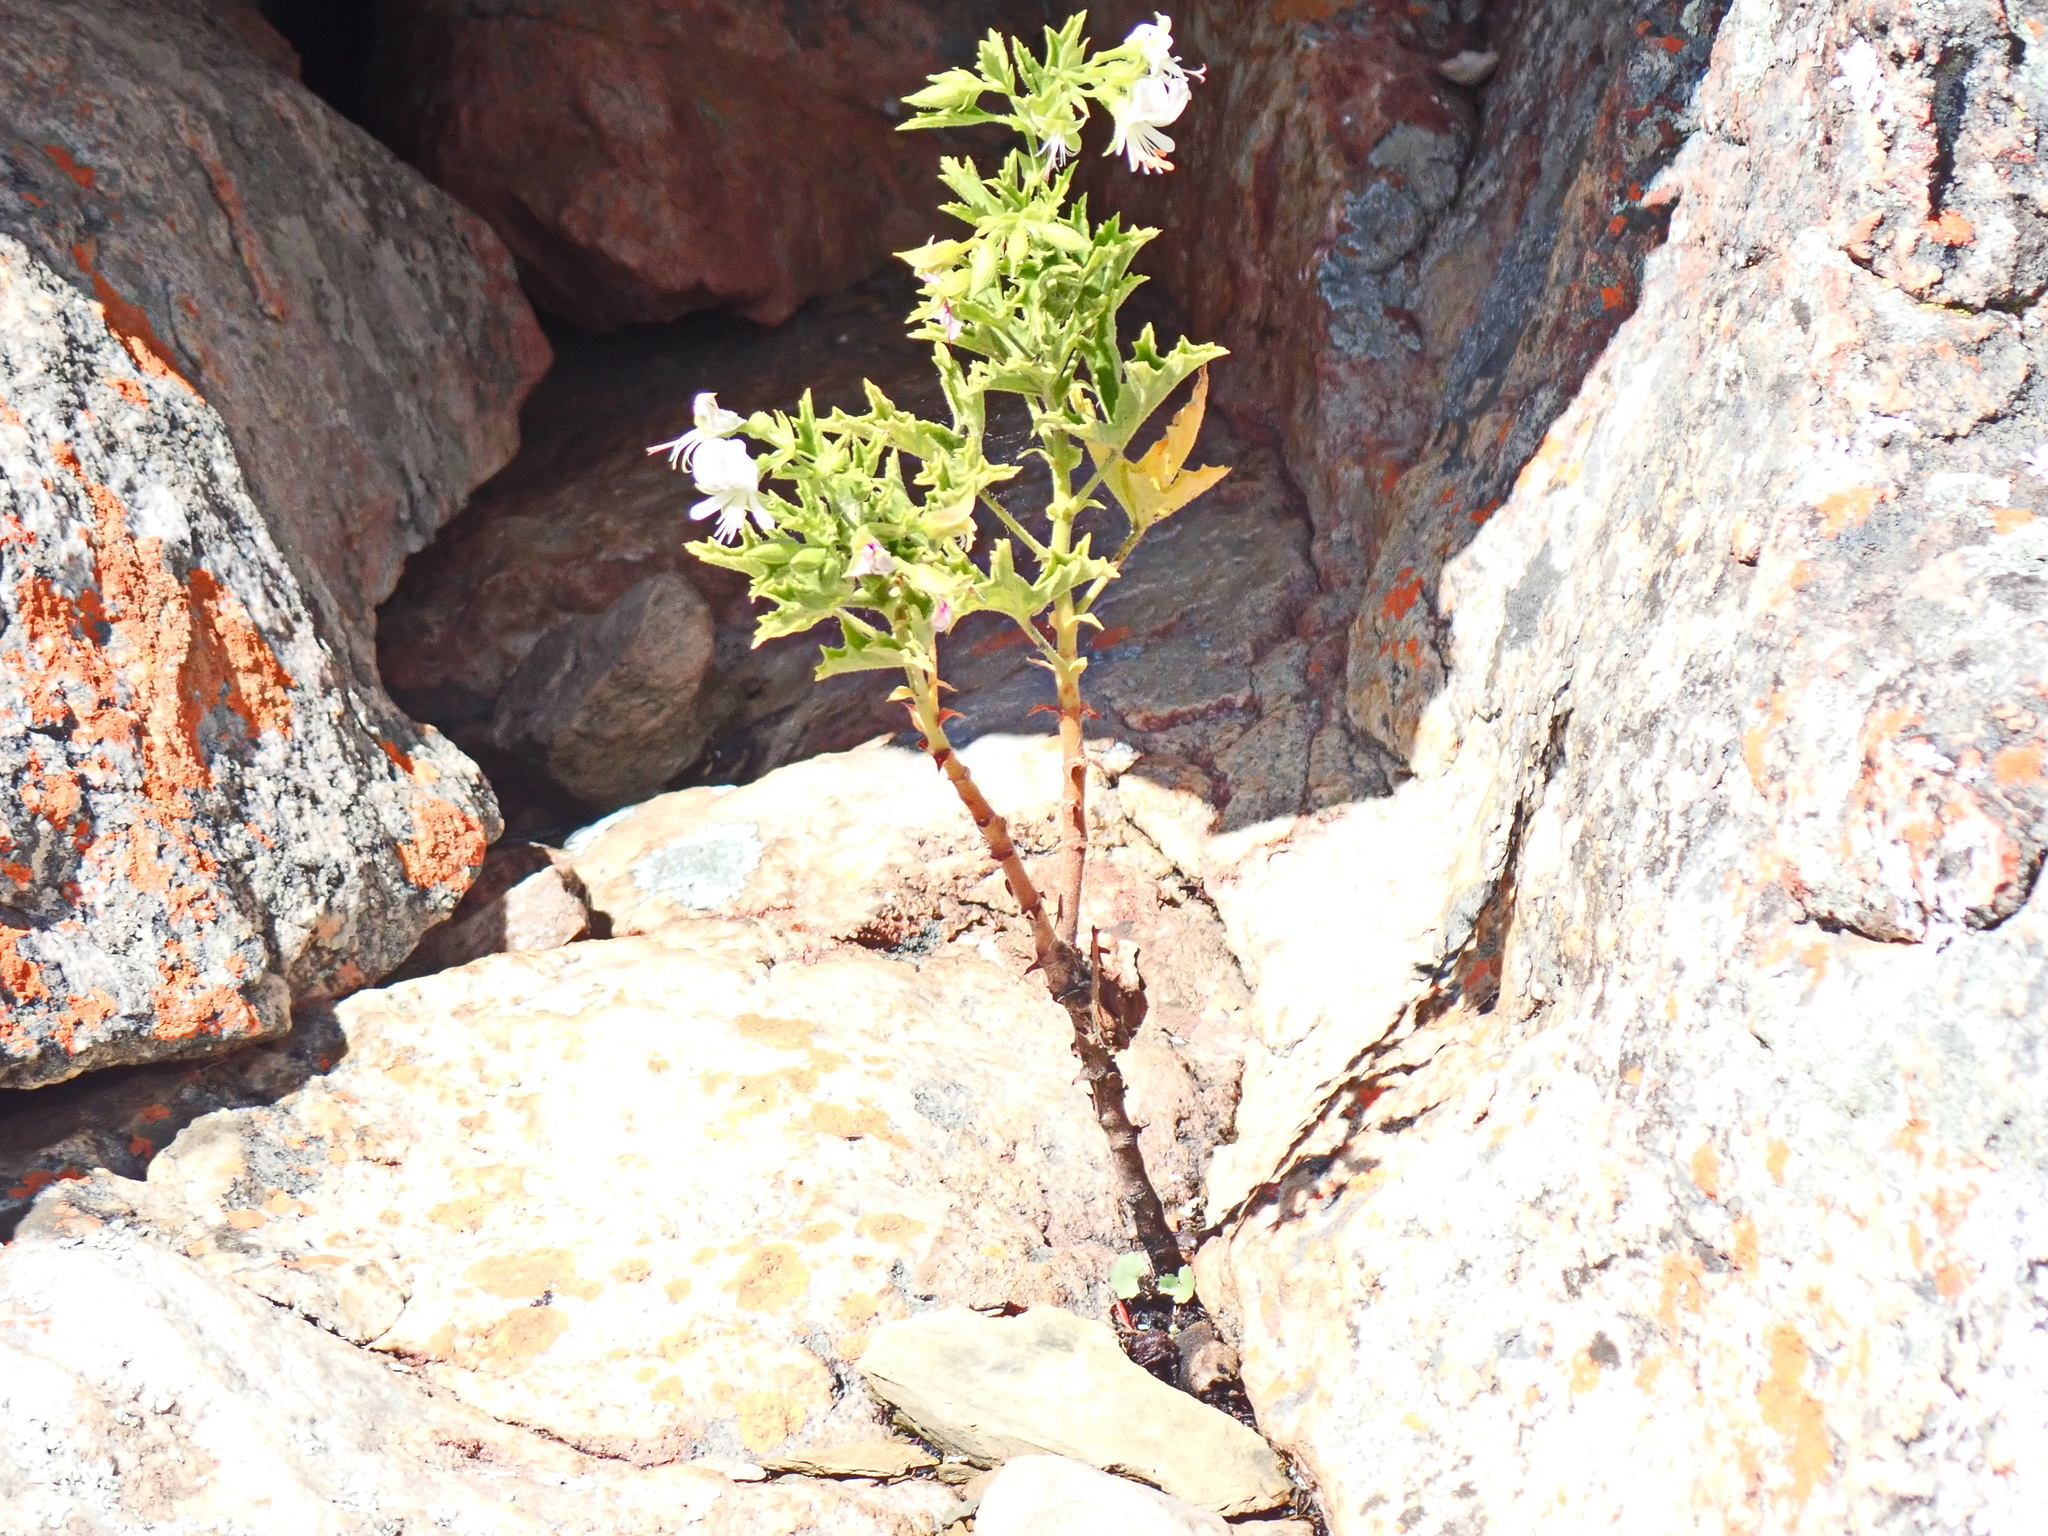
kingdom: Plantae
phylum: Tracheophyta
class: Magnoliopsida
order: Geraniales
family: Geraniaceae
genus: Pelargonium
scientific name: Pelargonium ribifolium
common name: Currant-leaf pelargonium
